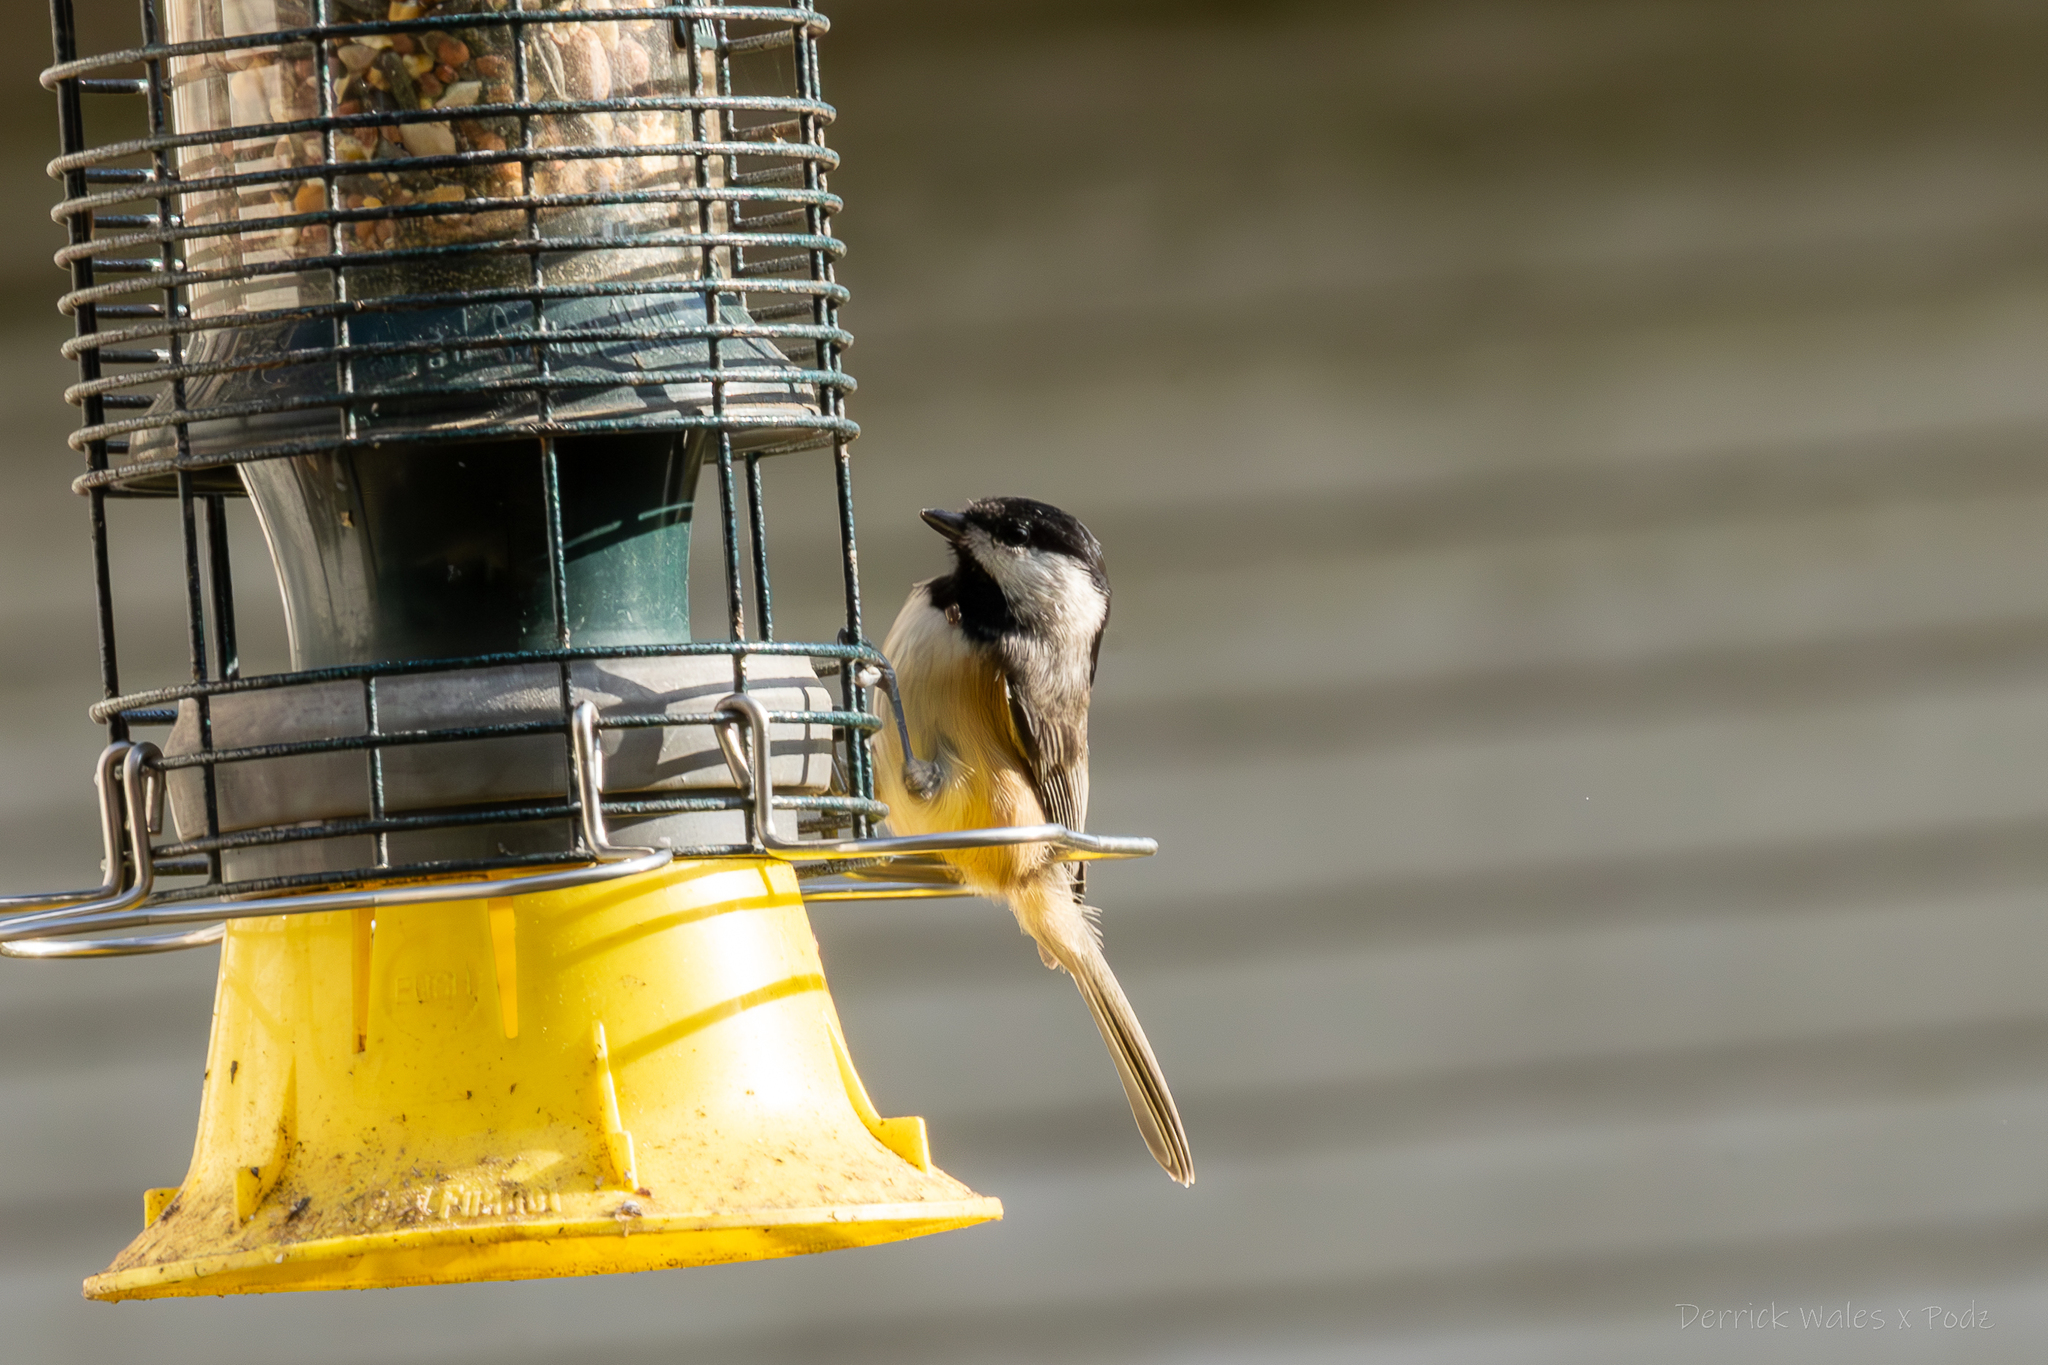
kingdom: Animalia
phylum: Chordata
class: Aves
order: Passeriformes
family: Paridae
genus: Poecile
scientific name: Poecile carolinensis
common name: Carolina chickadee
